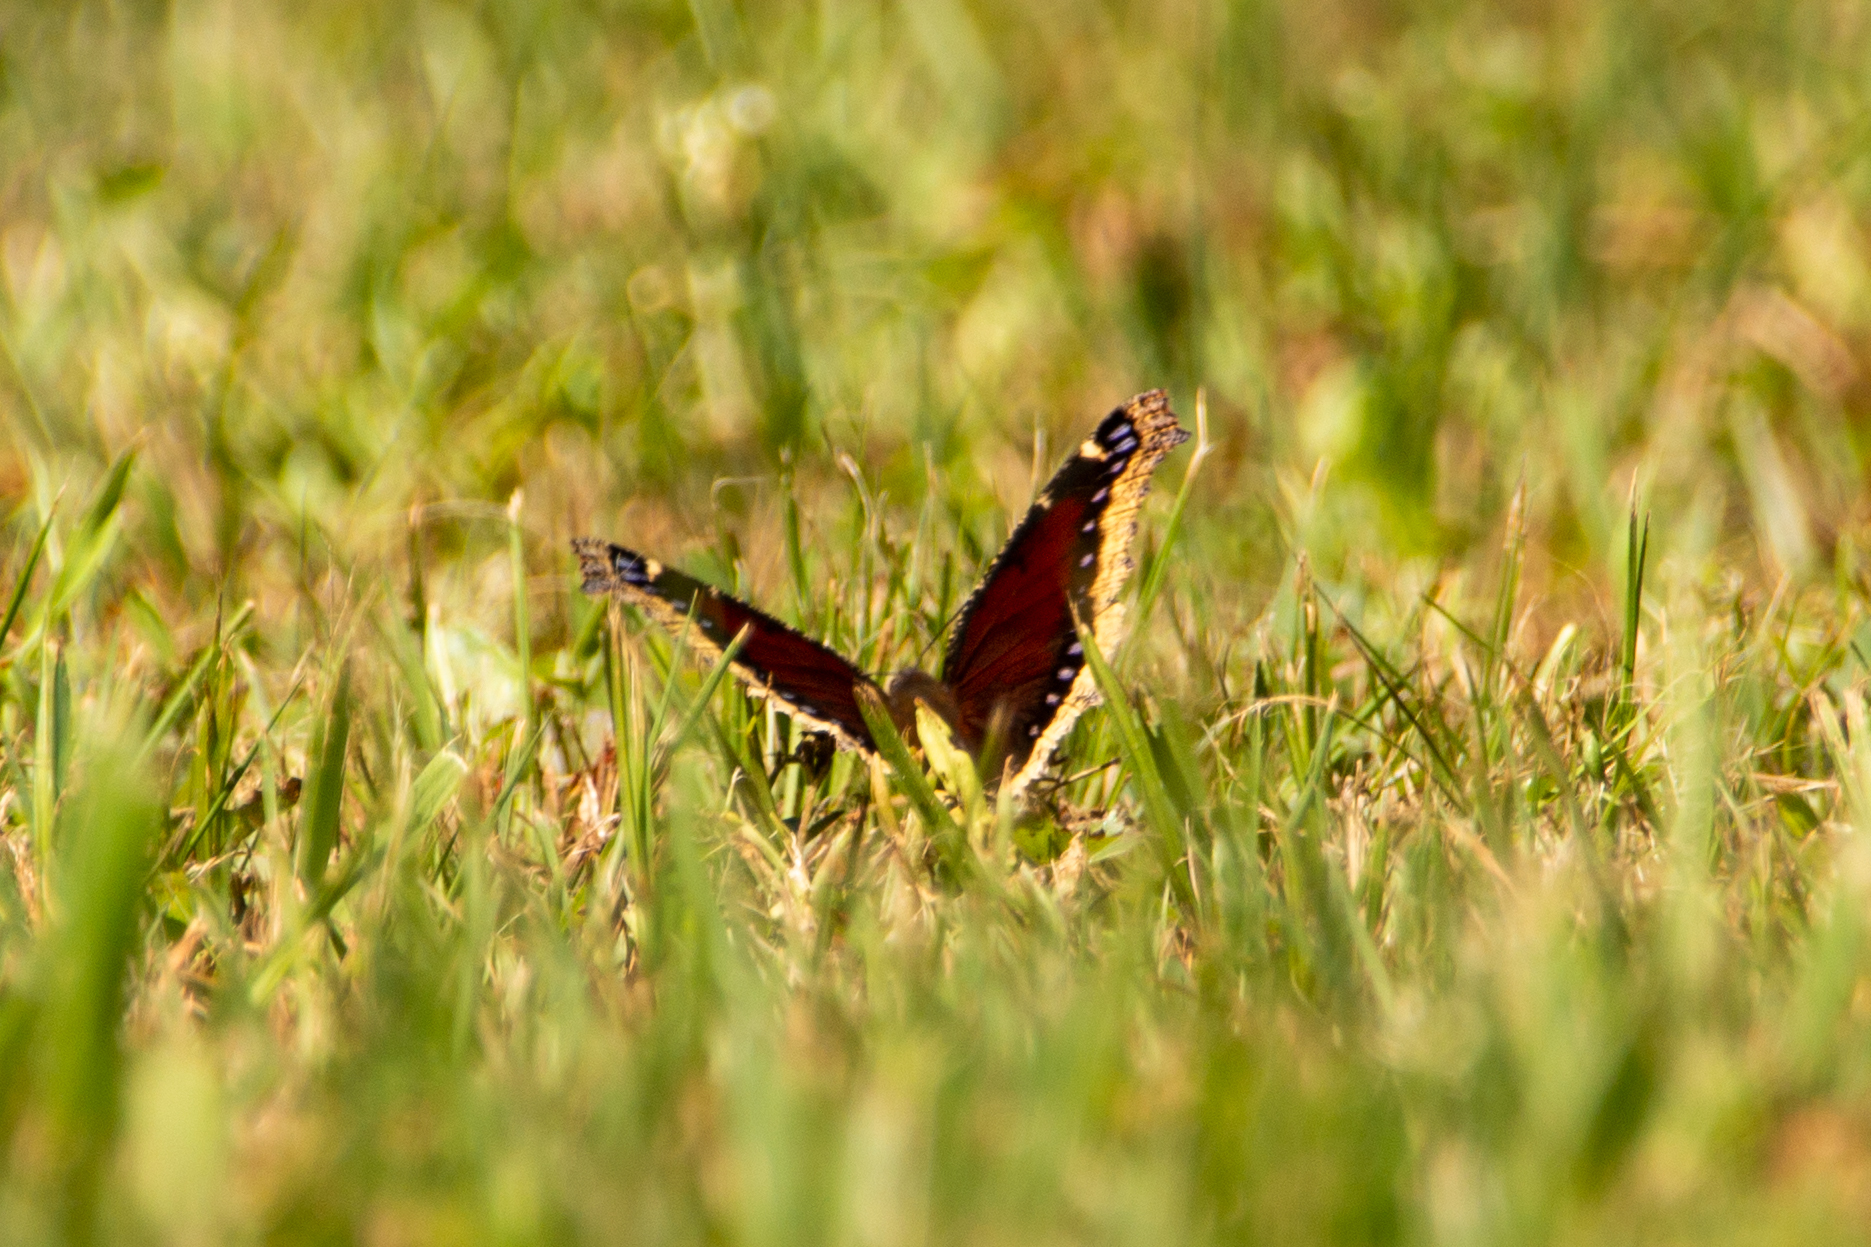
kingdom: Animalia
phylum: Arthropoda
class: Insecta
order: Lepidoptera
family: Nymphalidae
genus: Nymphalis
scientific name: Nymphalis antiopa
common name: Camberwell beauty
